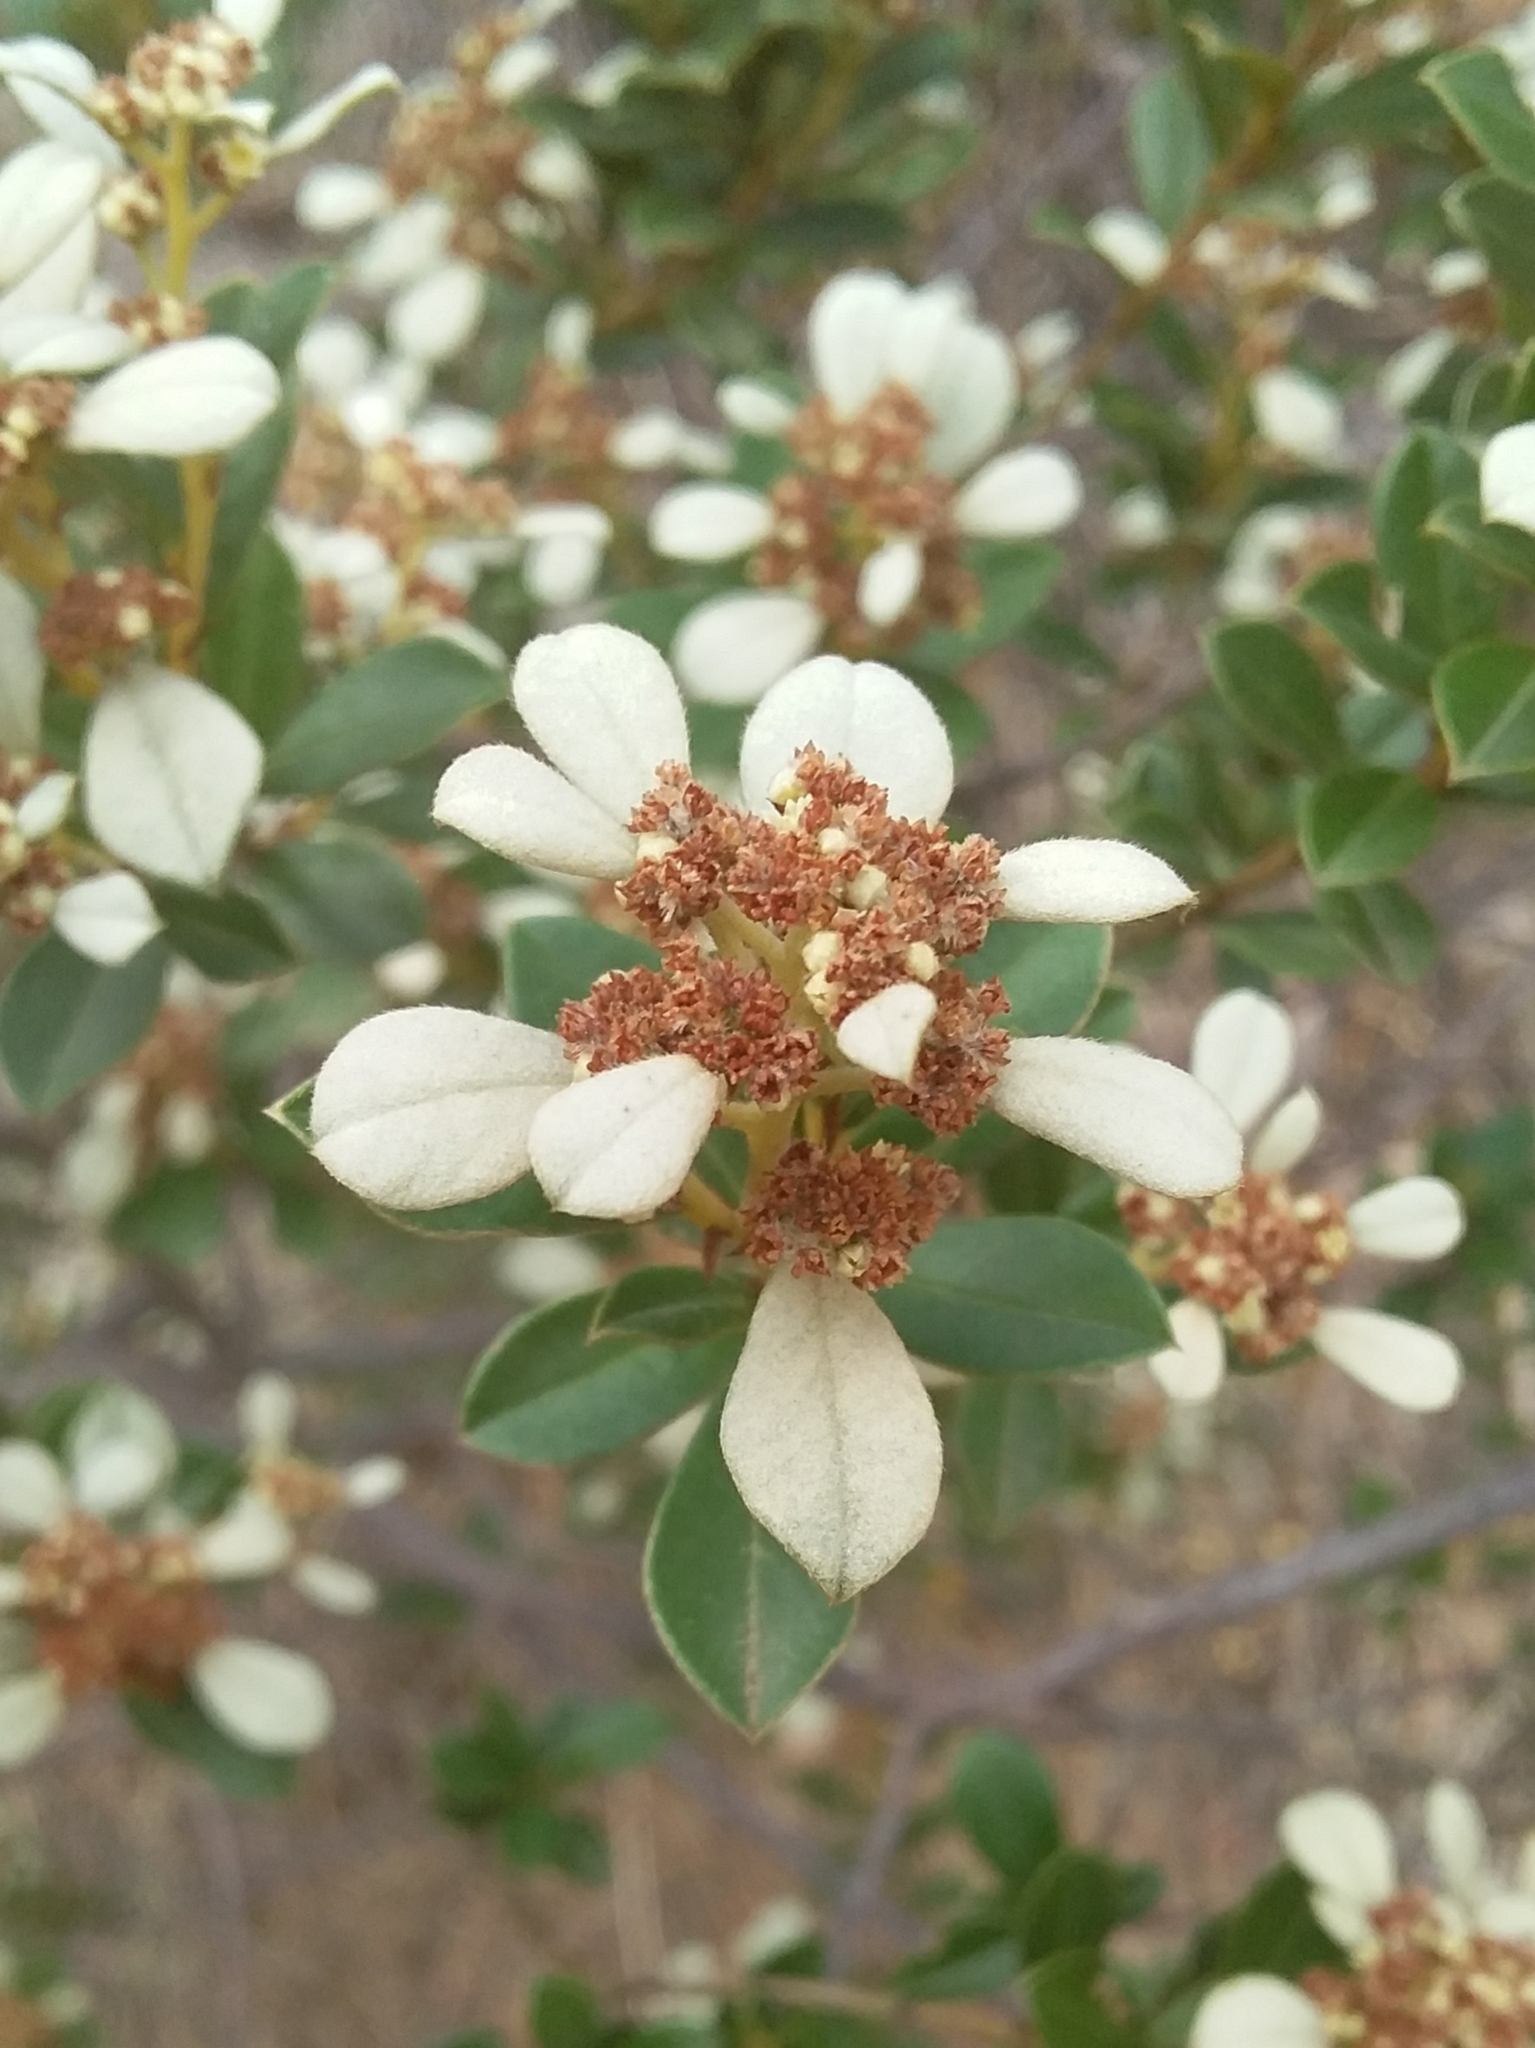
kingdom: Plantae
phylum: Tracheophyta
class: Magnoliopsida
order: Rosales
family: Rhamnaceae
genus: Spyridium
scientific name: Spyridium daphnoides
